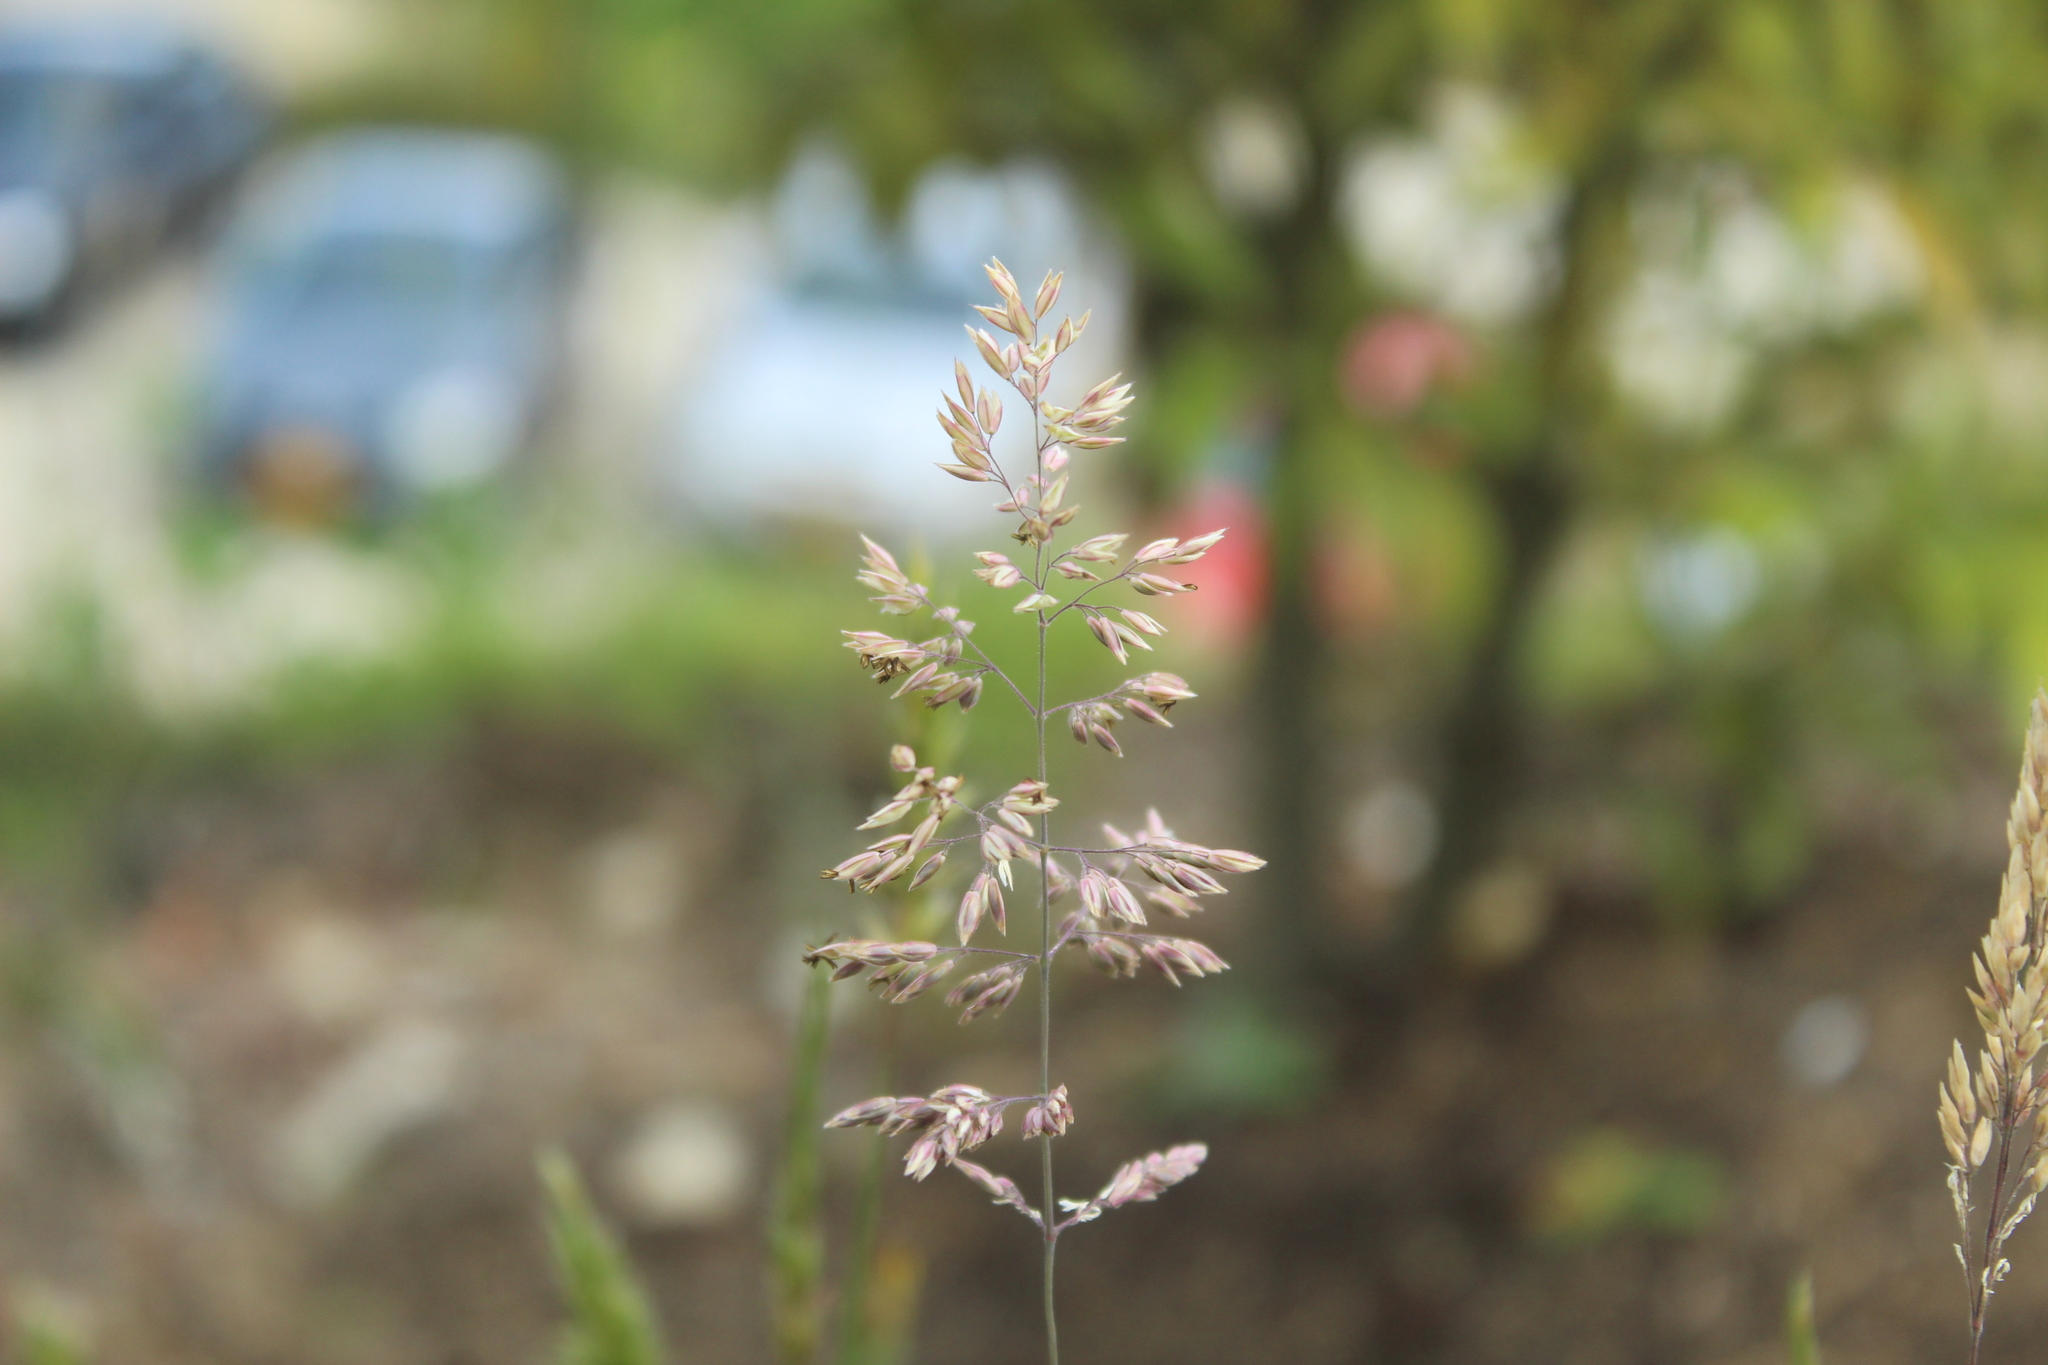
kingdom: Plantae
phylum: Tracheophyta
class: Liliopsida
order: Poales
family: Poaceae
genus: Holcus
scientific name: Holcus lanatus
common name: Yorkshire-fog
